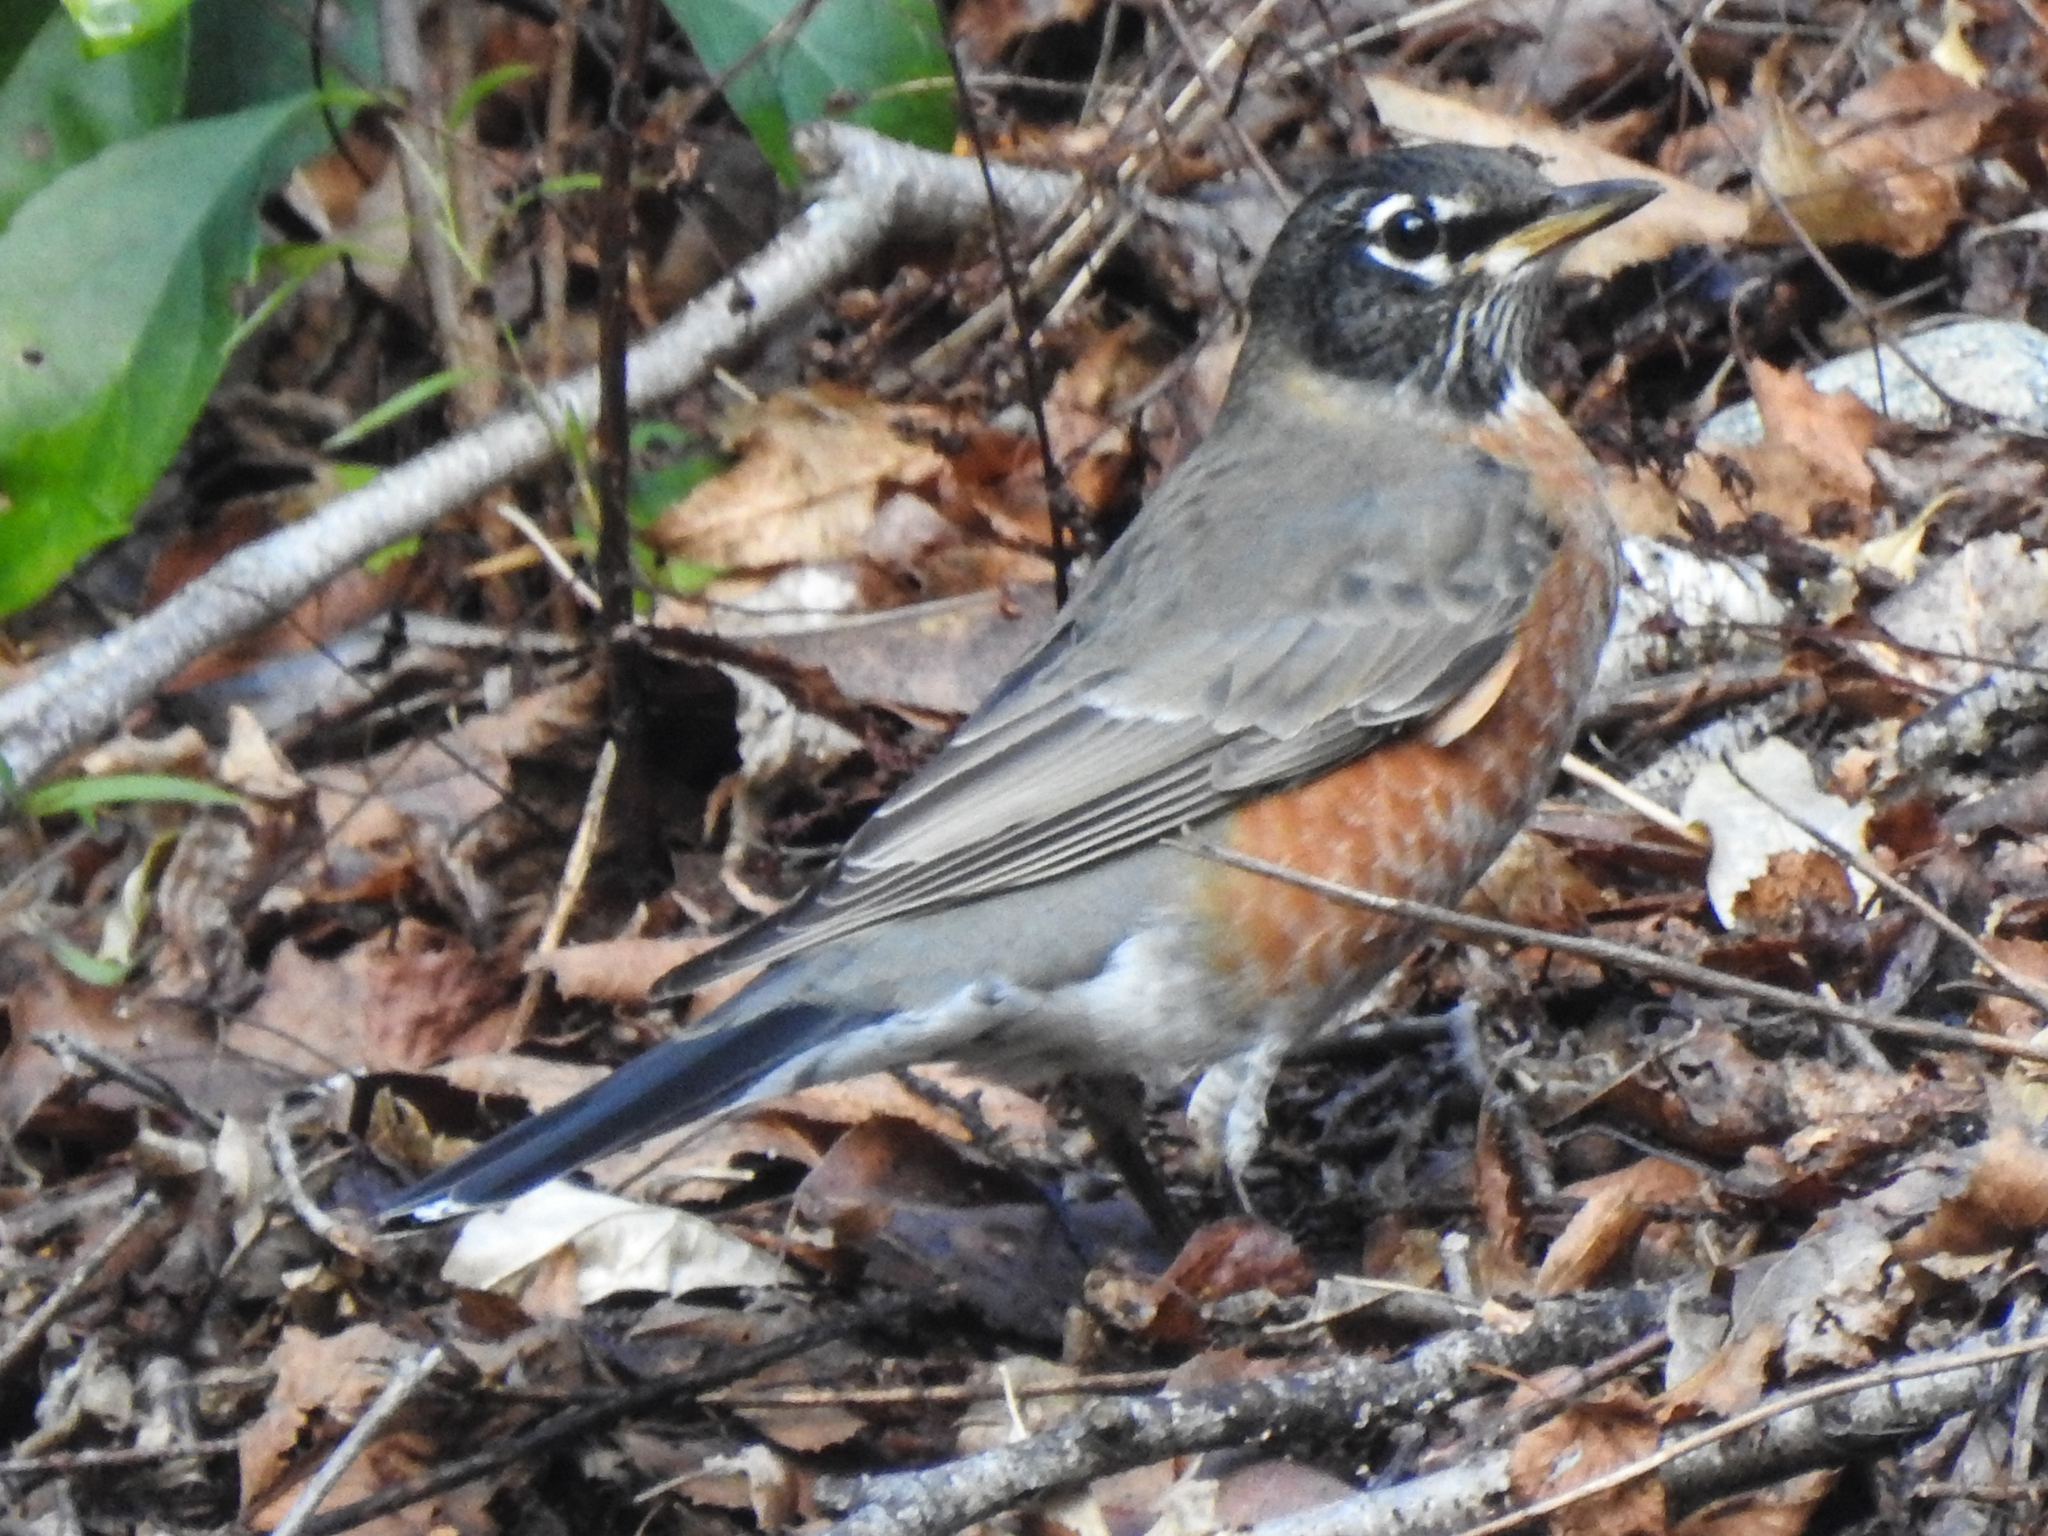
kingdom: Animalia
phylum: Chordata
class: Aves
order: Passeriformes
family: Turdidae
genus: Turdus
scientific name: Turdus migratorius
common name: American robin
